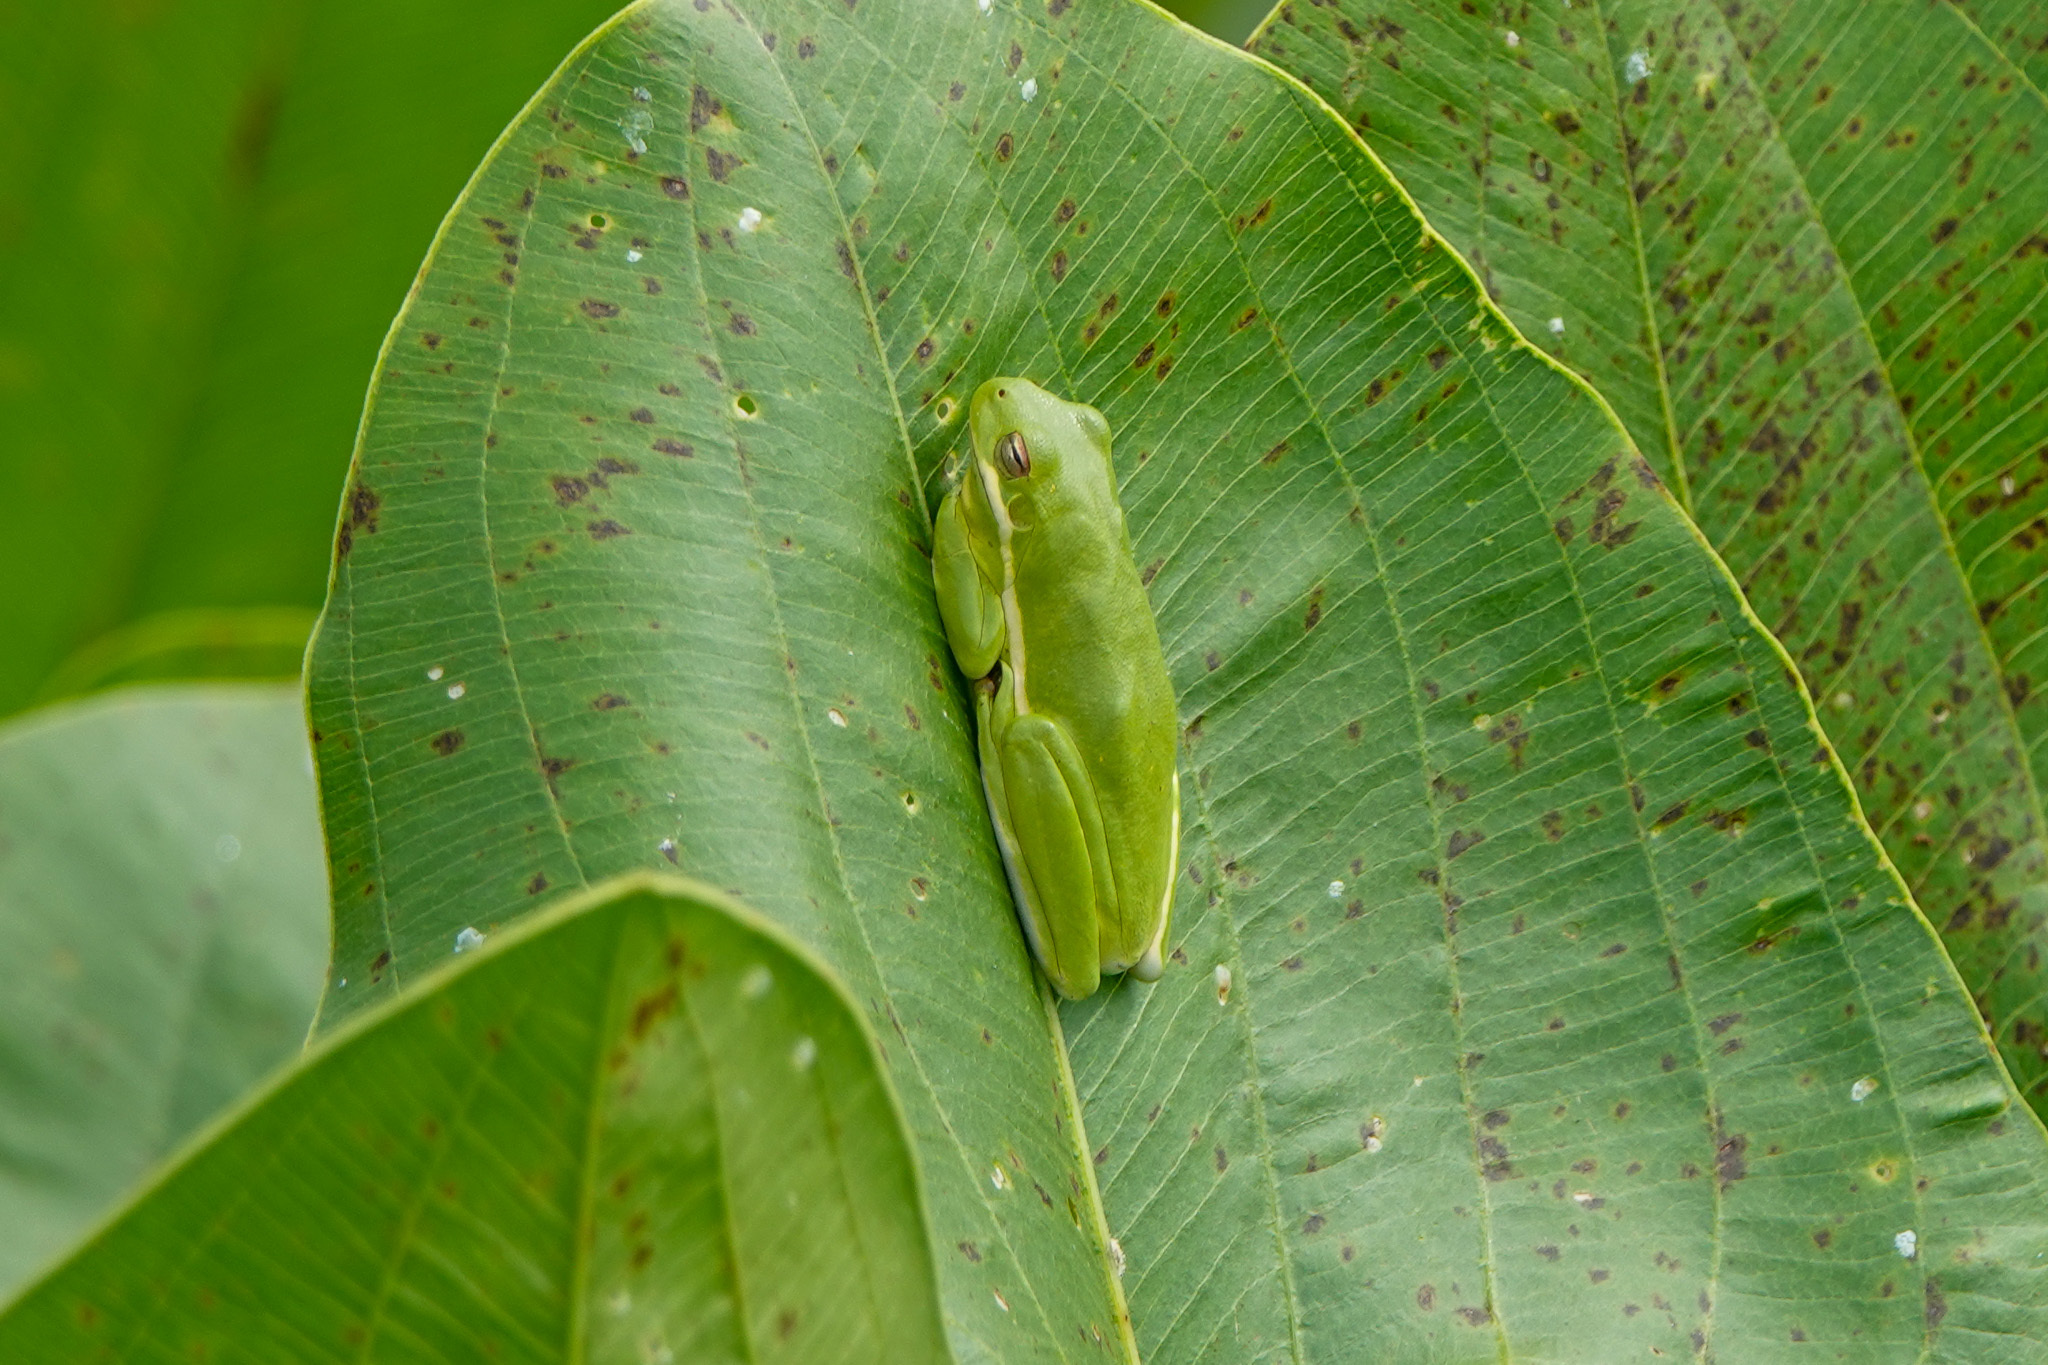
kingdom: Animalia
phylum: Chordata
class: Amphibia
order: Anura
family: Hylidae
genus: Dryophytes
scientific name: Dryophytes cinereus
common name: Green treefrog
